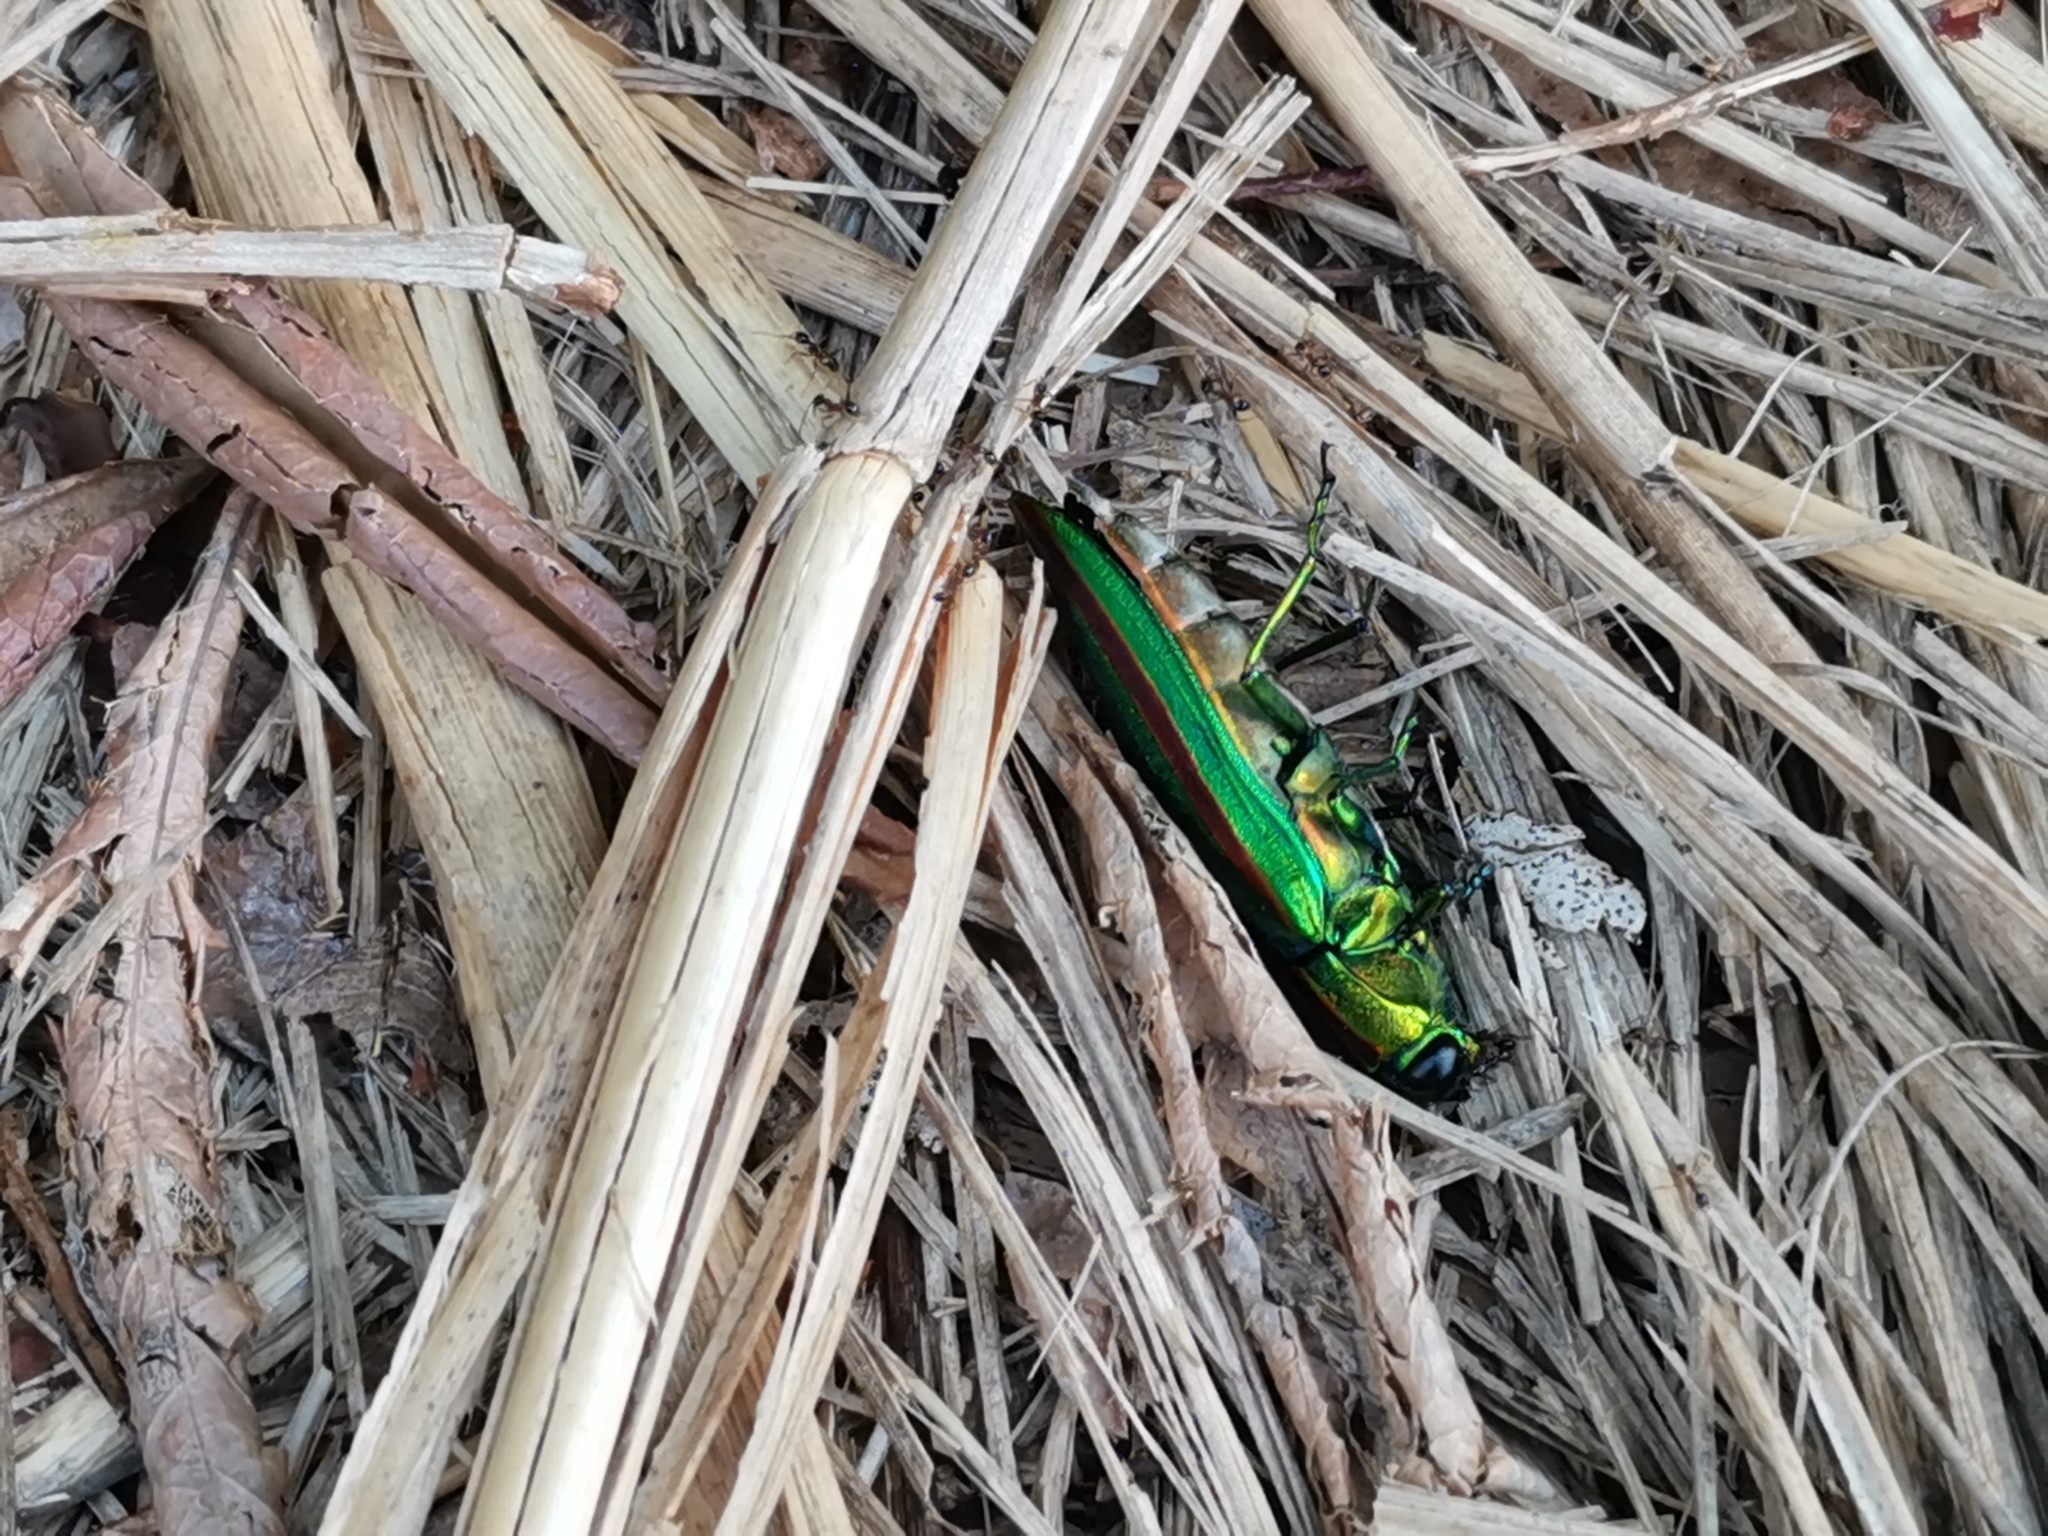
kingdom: Animalia
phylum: Arthropoda
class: Insecta
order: Coleoptera
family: Buprestidae
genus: Chrysochroa
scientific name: Chrysochroa fulgidissima
